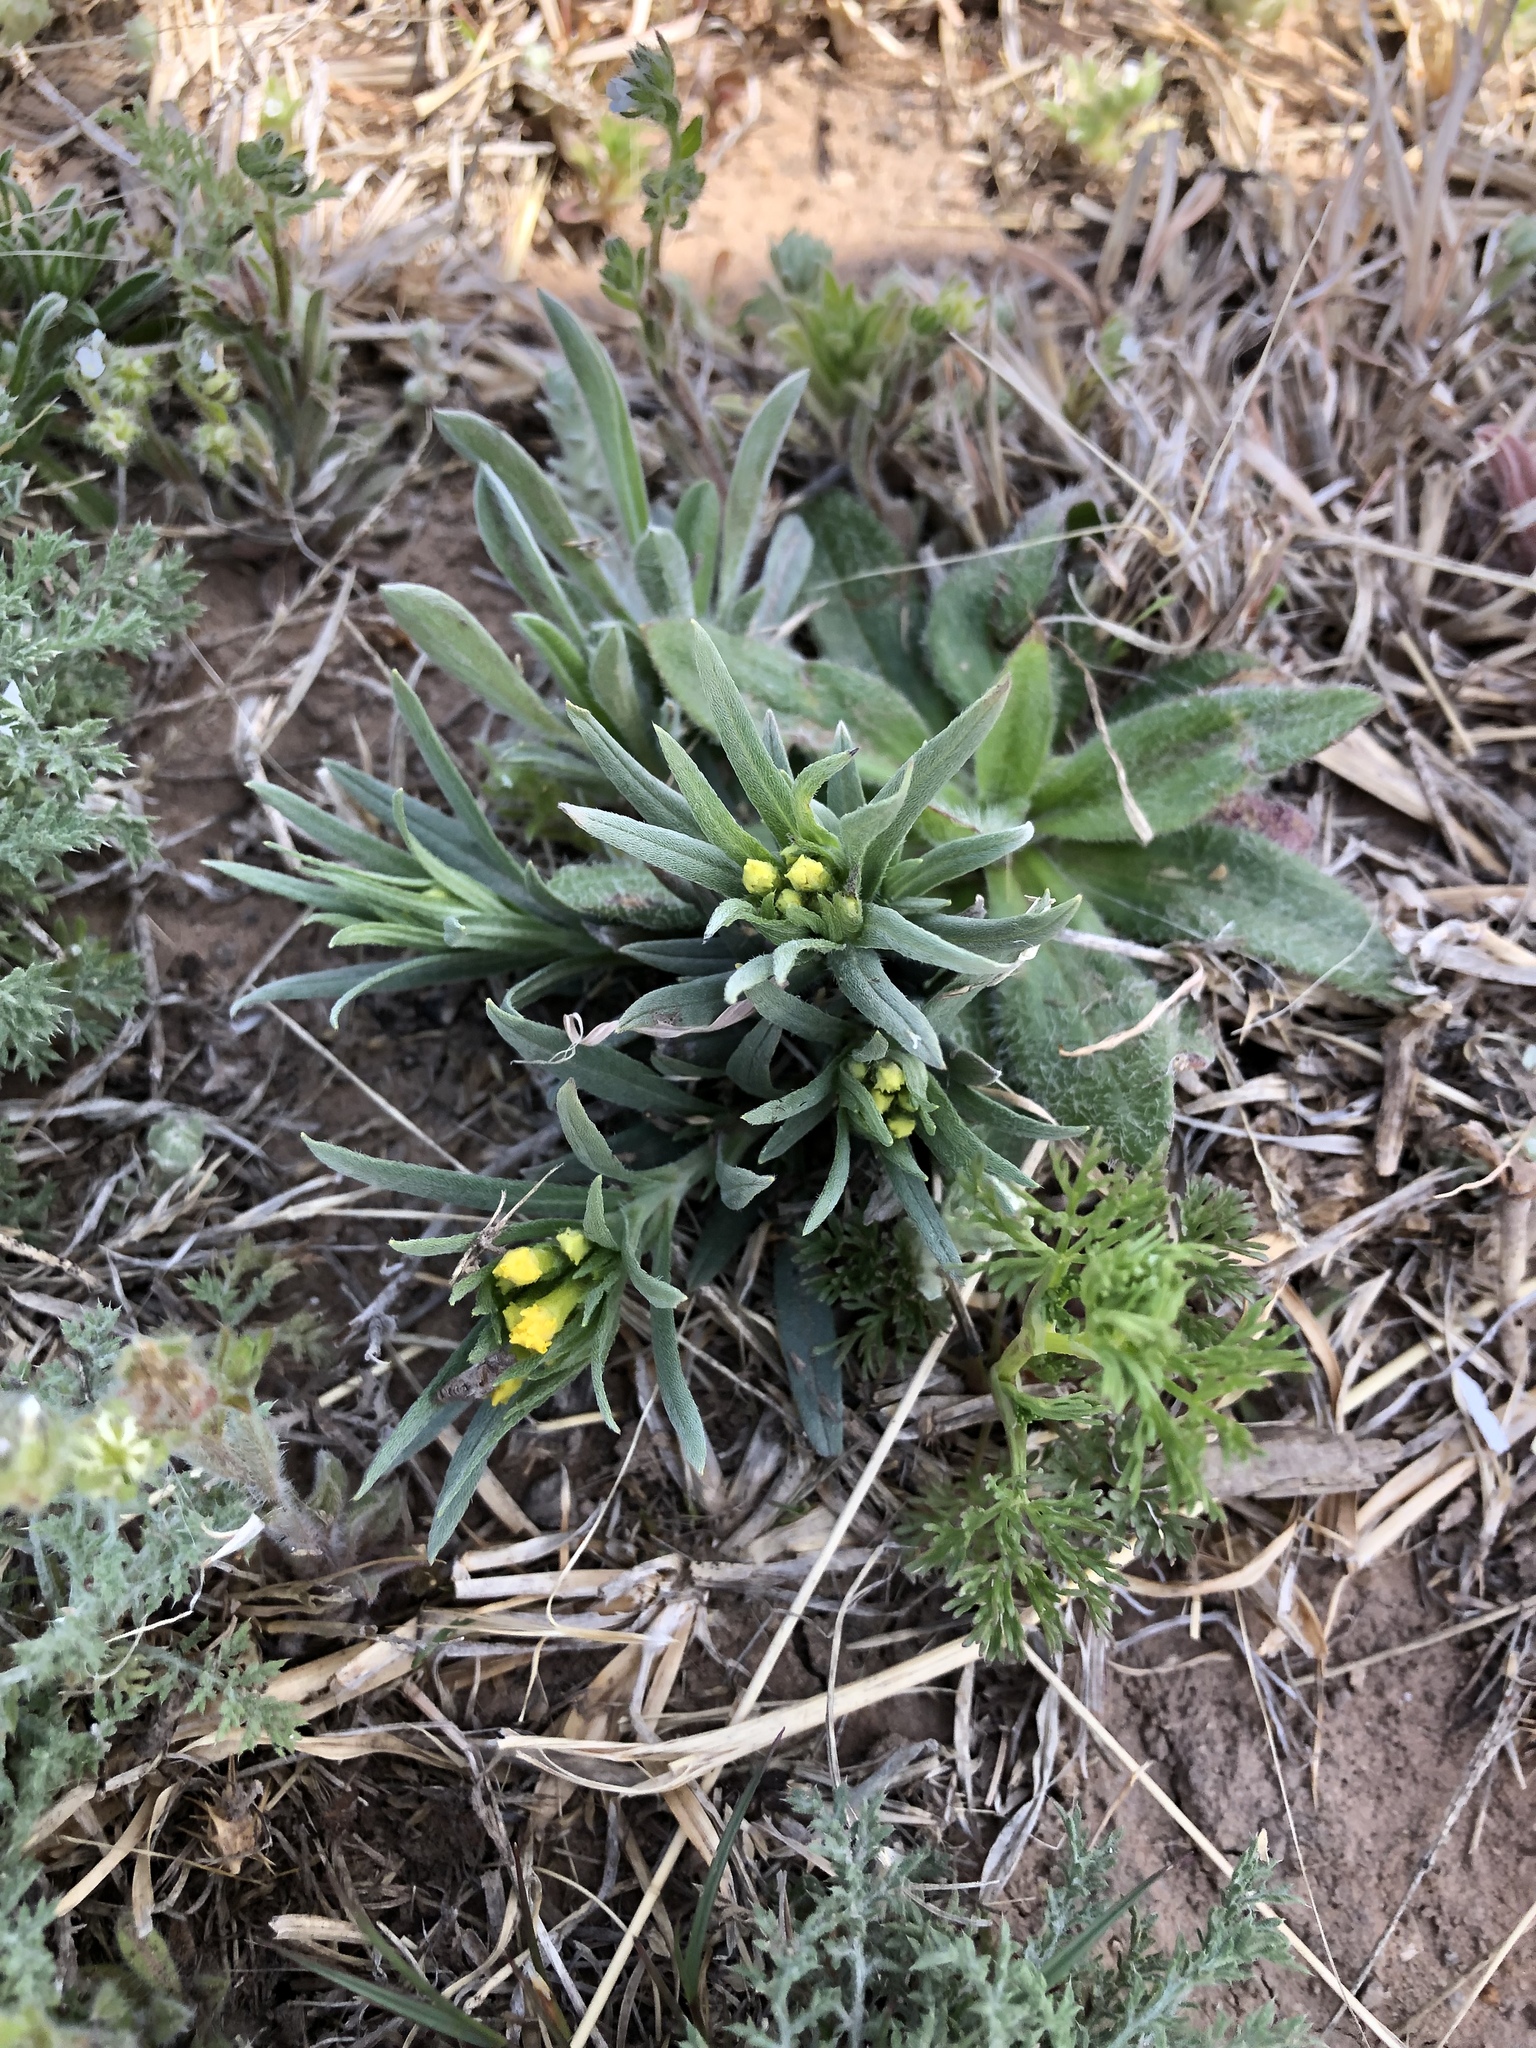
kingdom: Plantae
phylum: Tracheophyta
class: Magnoliopsida
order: Boraginales
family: Boraginaceae
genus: Lithospermum
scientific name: Lithospermum incisum
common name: Fringed gromwell
